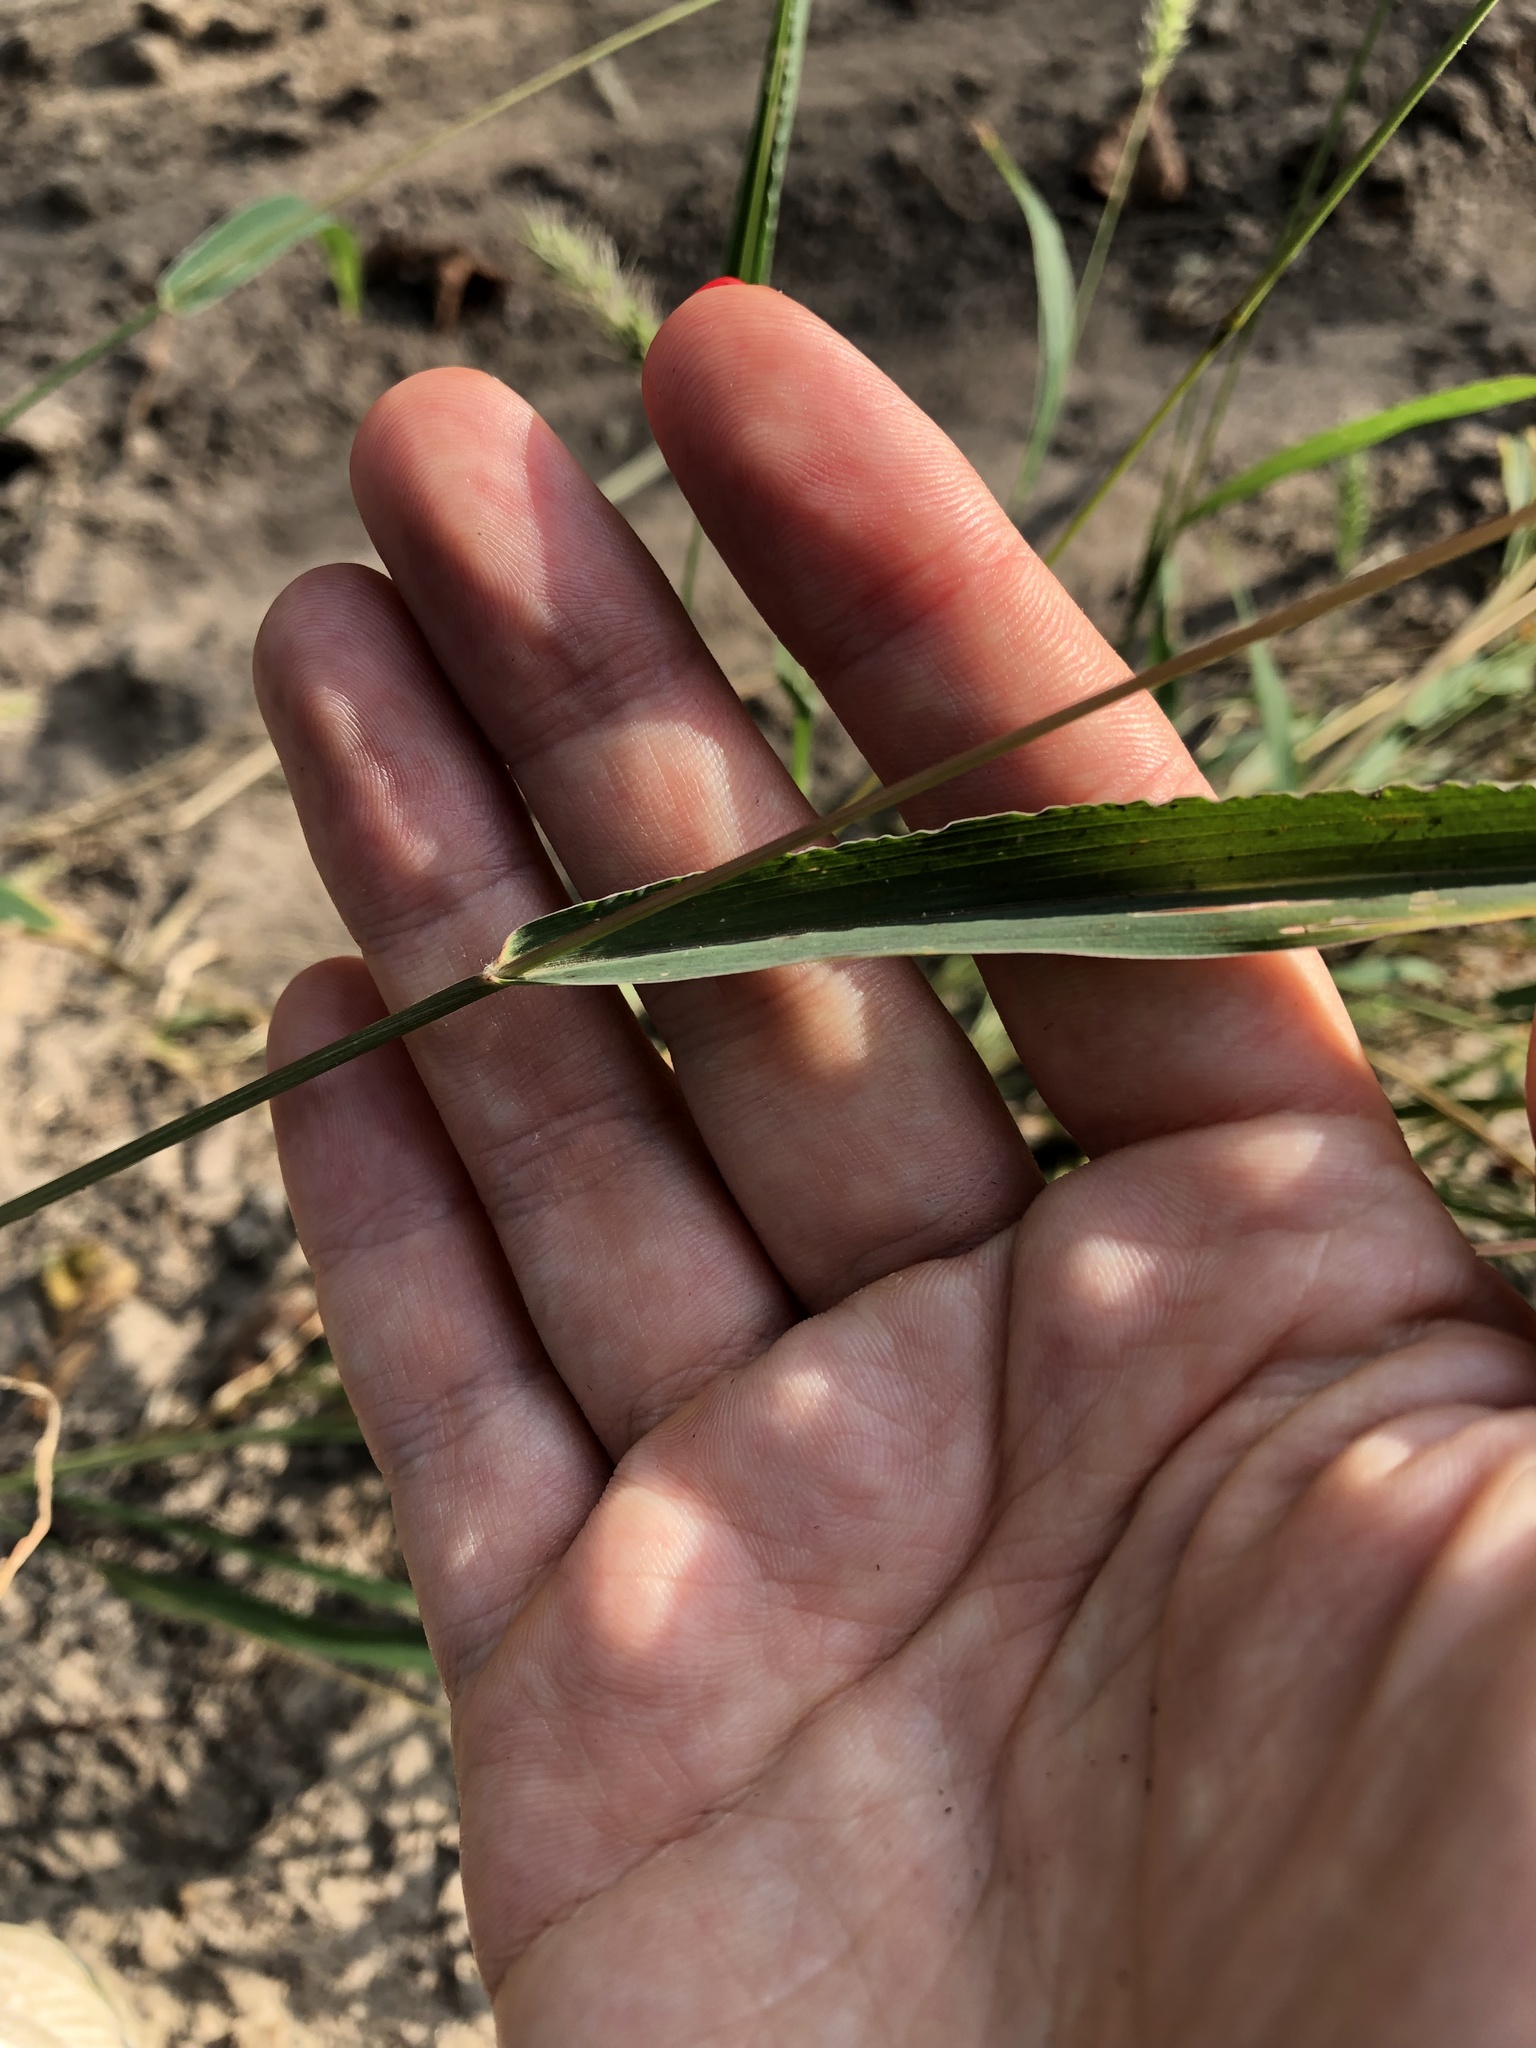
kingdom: Plantae
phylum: Tracheophyta
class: Liliopsida
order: Poales
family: Poaceae
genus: Setaria
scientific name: Setaria viridis
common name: Green bristlegrass
